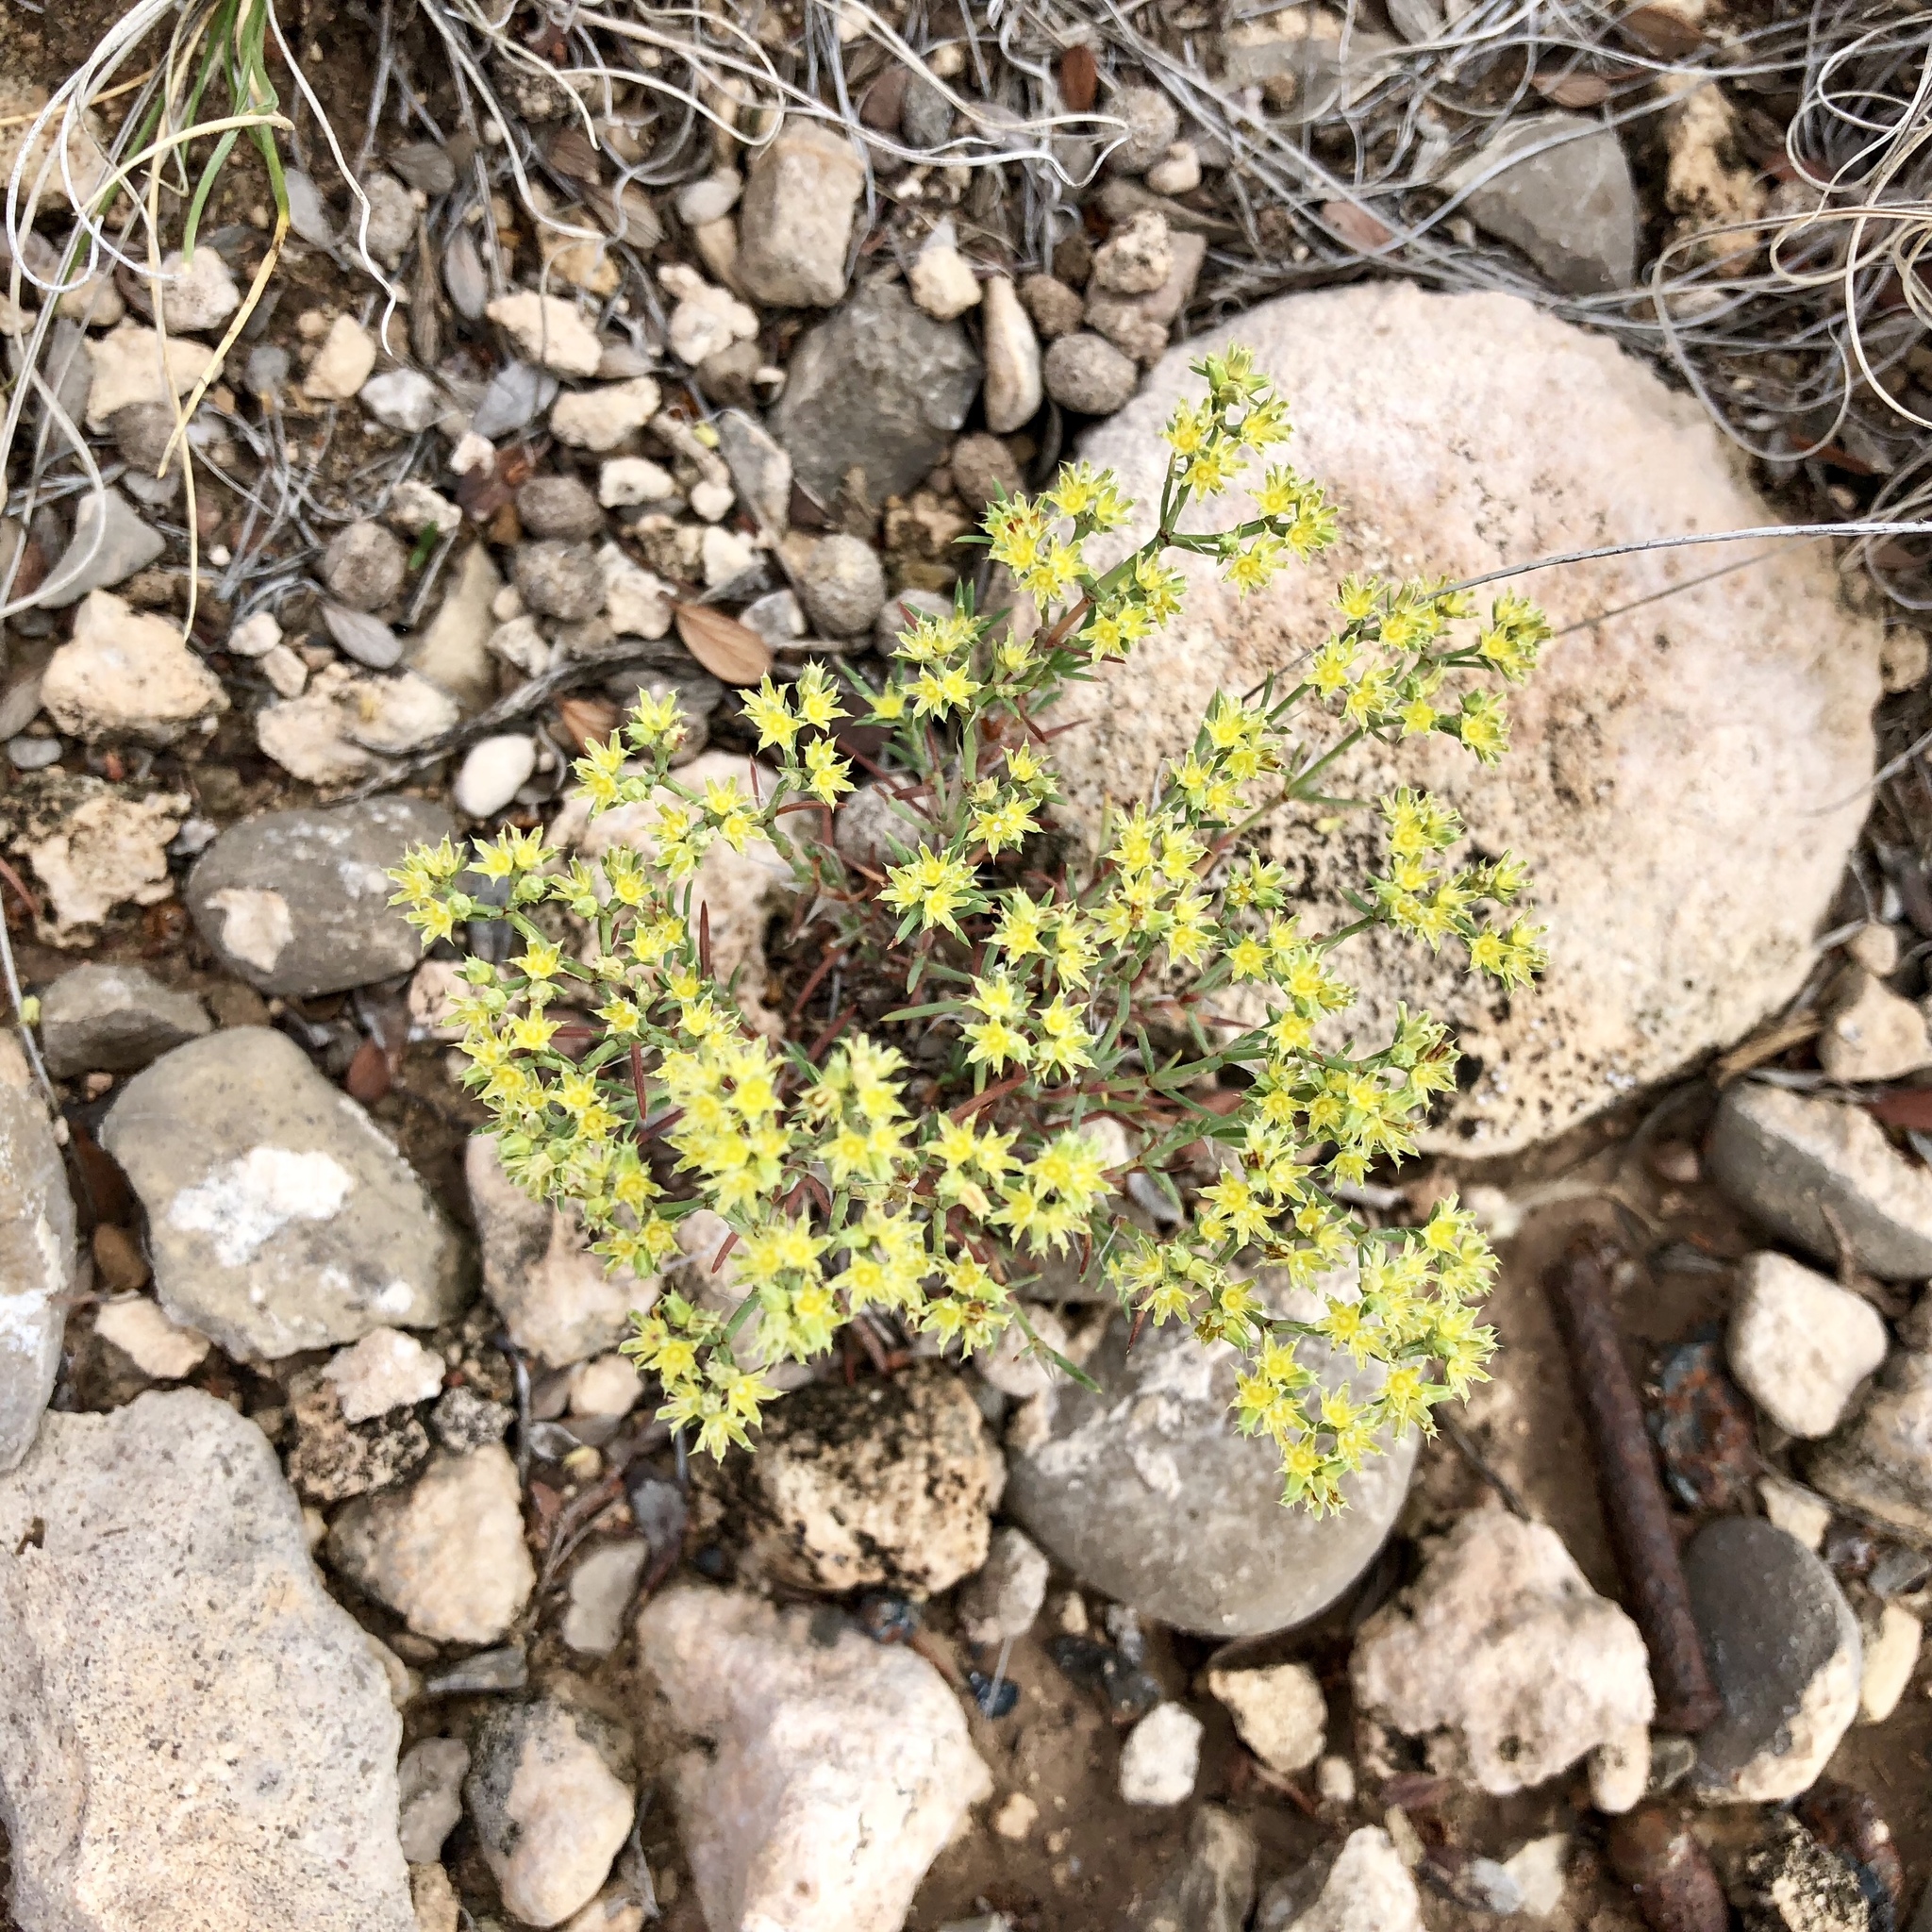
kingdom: Plantae
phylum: Tracheophyta
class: Magnoliopsida
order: Caryophyllales
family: Caryophyllaceae
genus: Paronychia
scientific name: Paronychia jamesii
